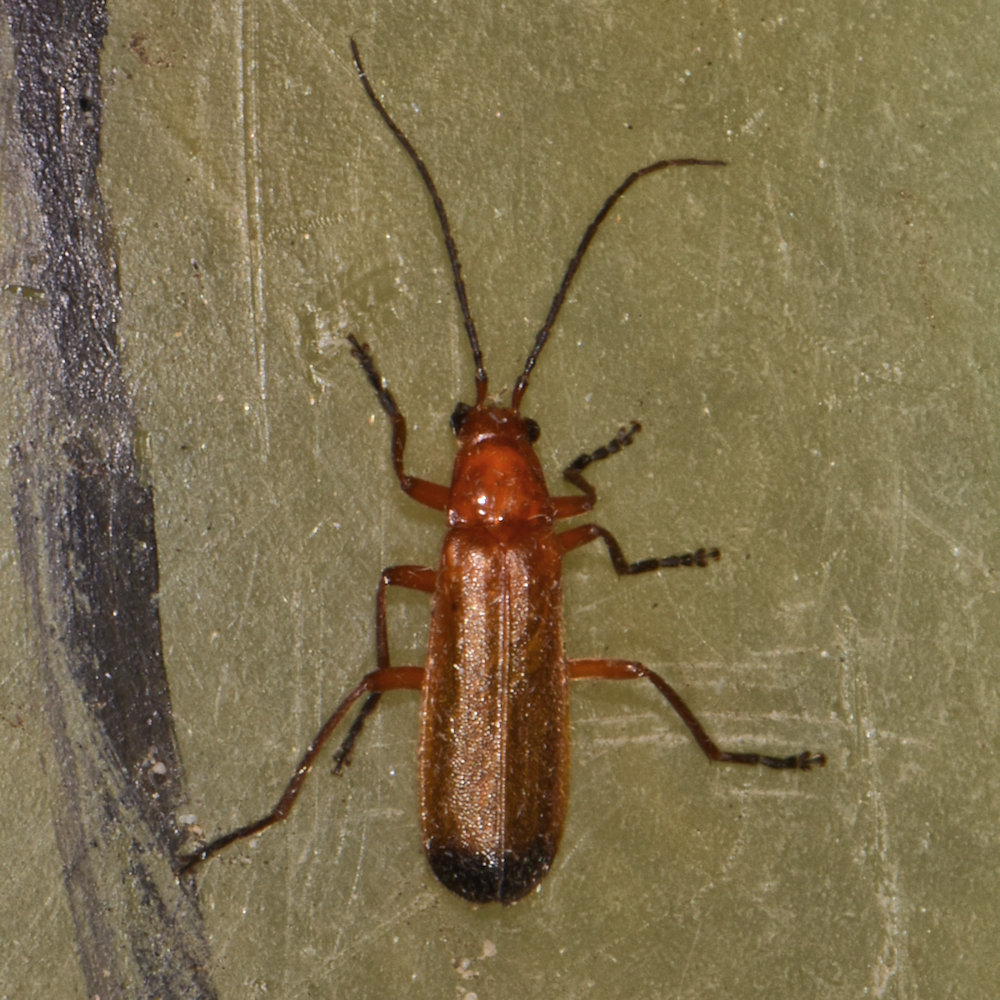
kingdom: Animalia
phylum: Arthropoda
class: Insecta
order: Coleoptera
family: Cantharidae
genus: Rhagonycha
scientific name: Rhagonycha fulva
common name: Common red soldier beetle
